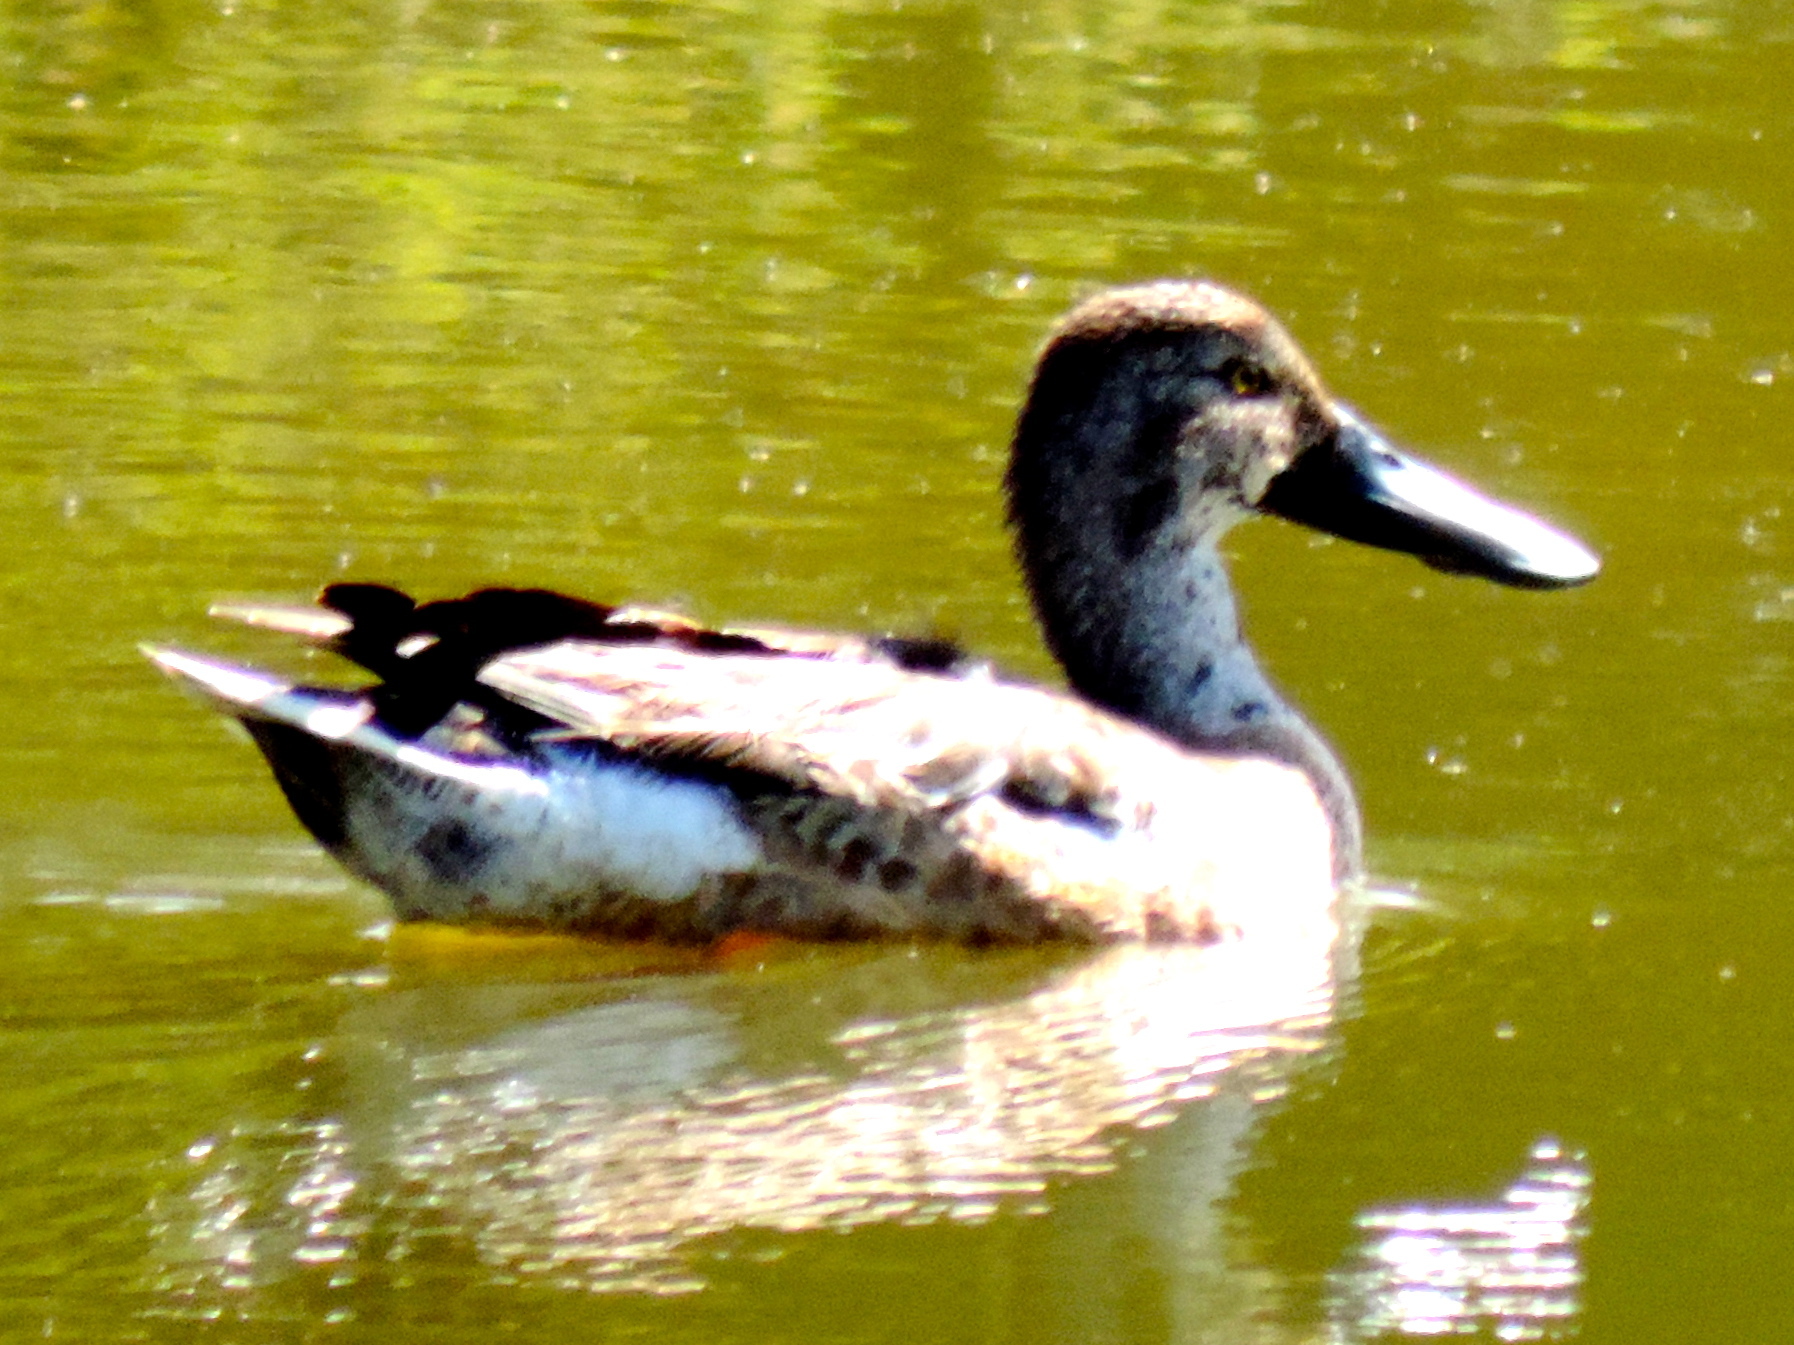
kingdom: Animalia
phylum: Chordata
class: Aves
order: Anseriformes
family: Anatidae
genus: Spatula
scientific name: Spatula clypeata
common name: Northern shoveler
